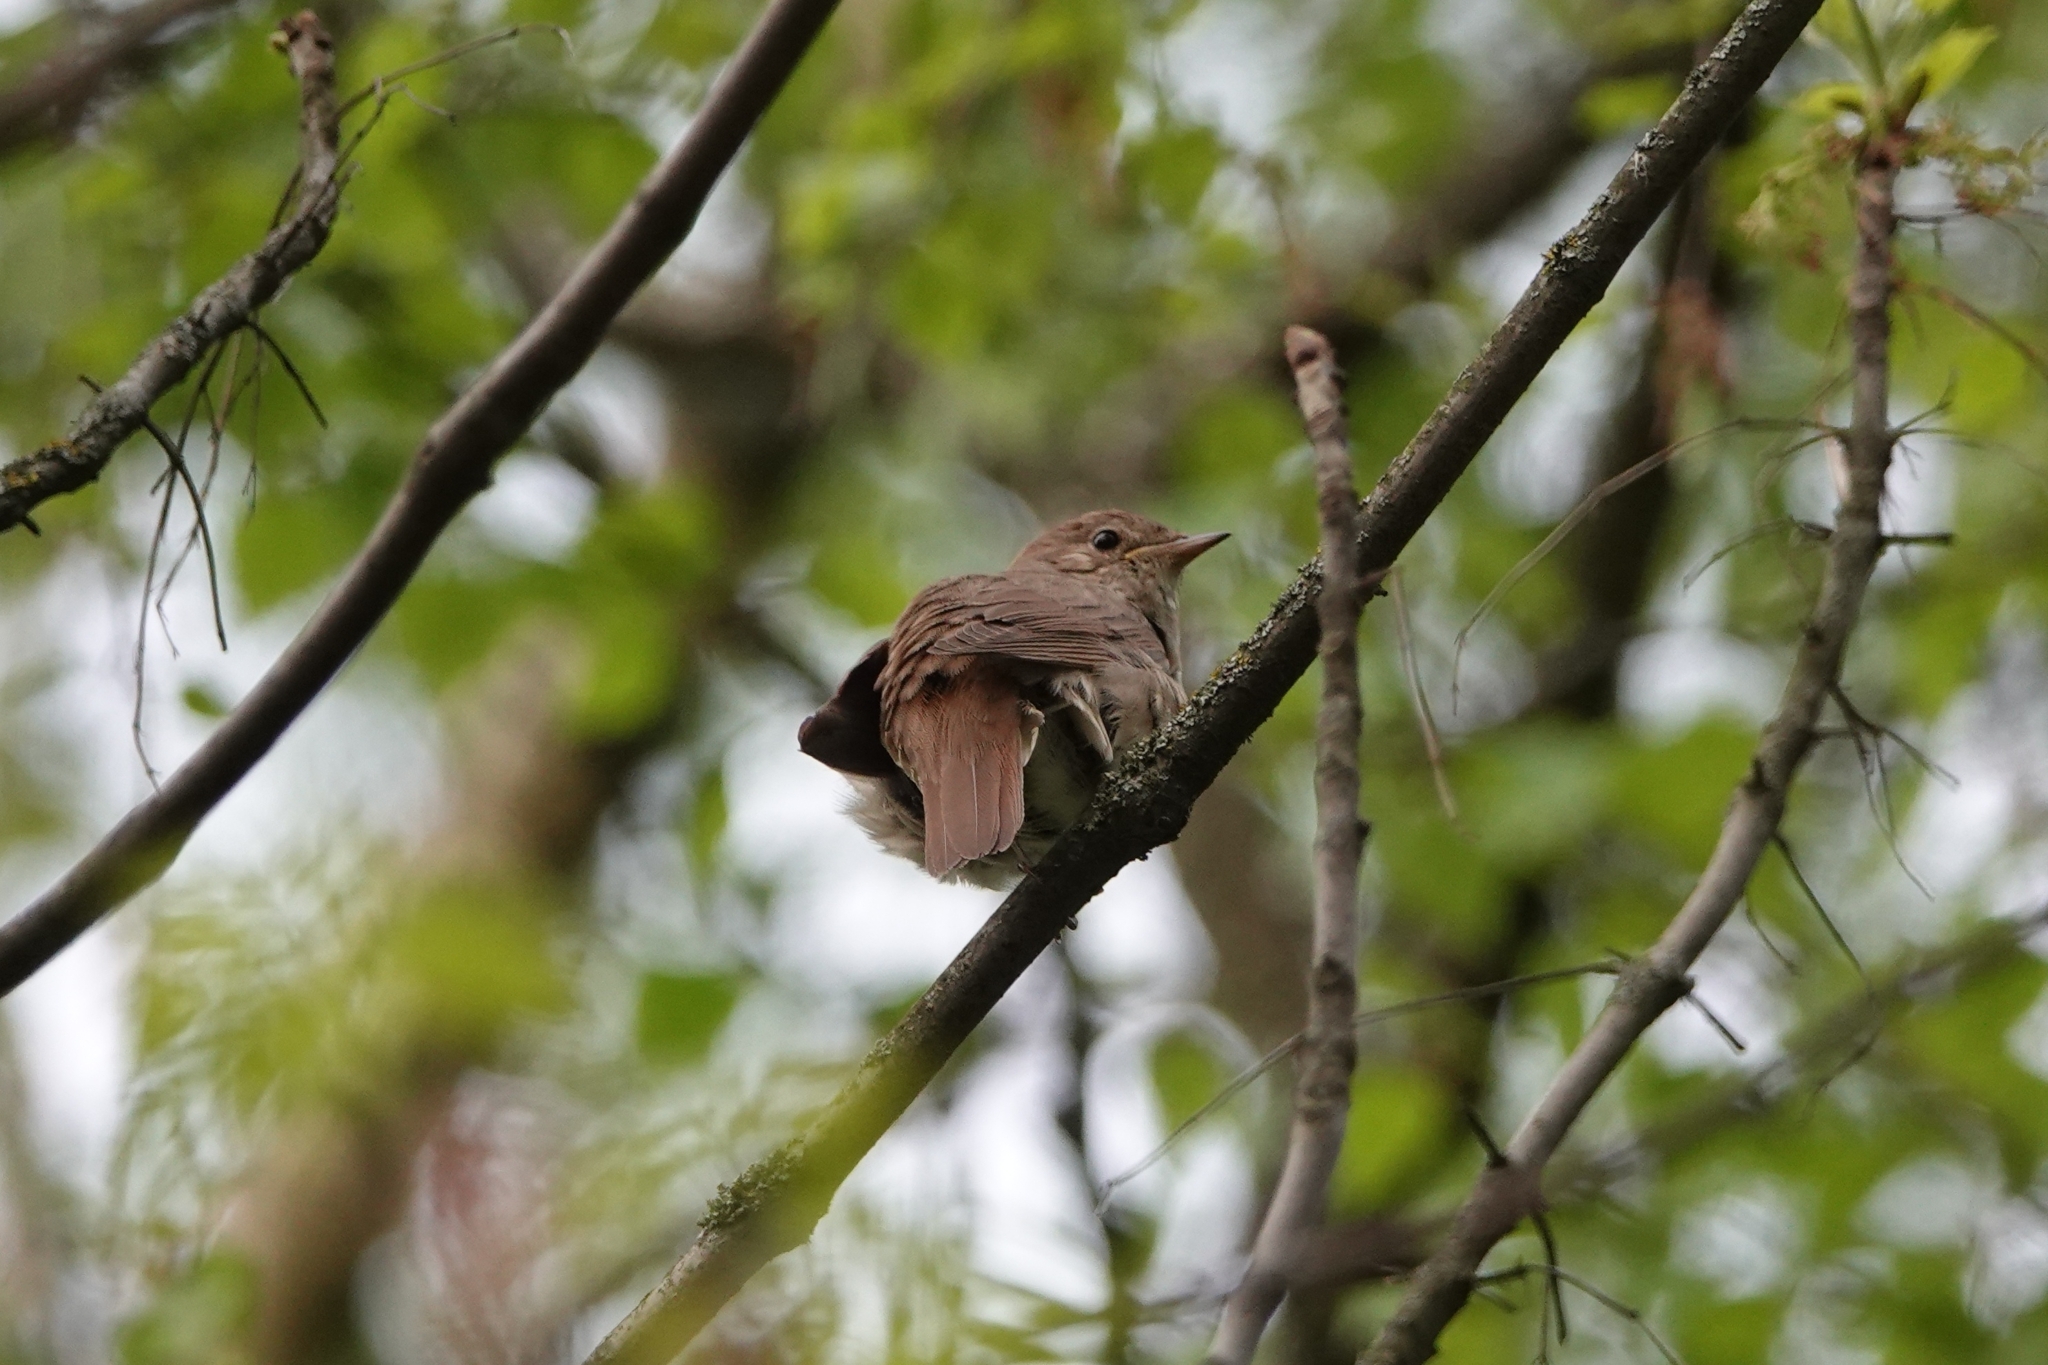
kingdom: Animalia
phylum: Chordata
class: Aves
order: Passeriformes
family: Muscicapidae
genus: Luscinia
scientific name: Luscinia luscinia
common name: Thrush nightingale
